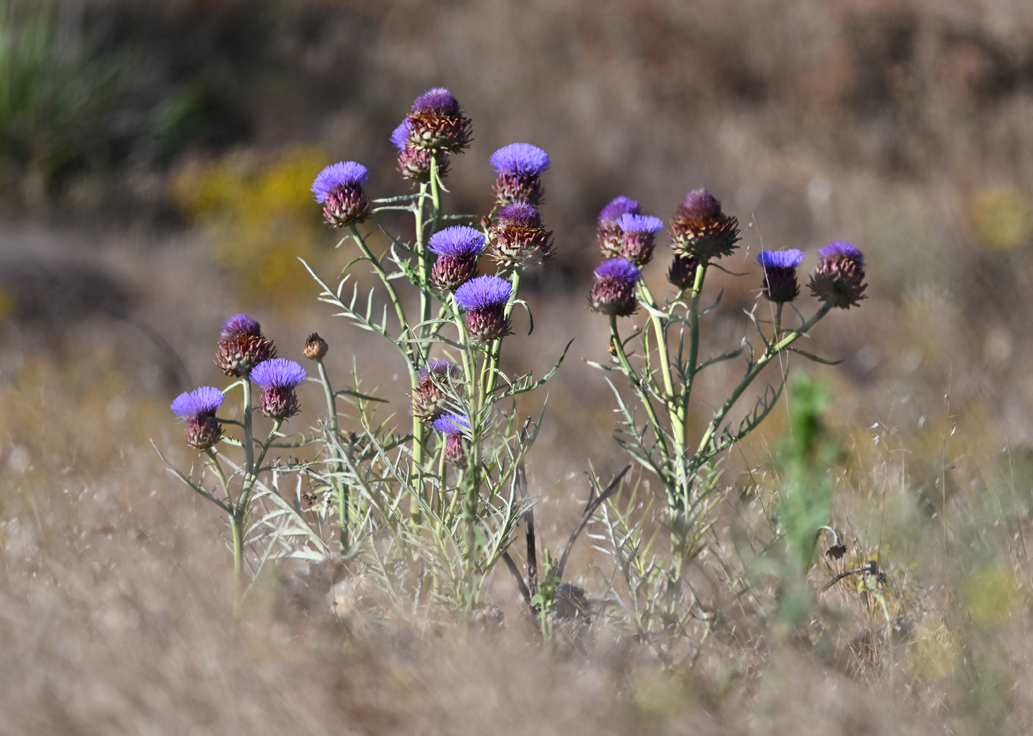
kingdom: Plantae
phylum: Tracheophyta
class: Magnoliopsida
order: Asterales
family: Asteraceae
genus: Cynara
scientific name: Cynara cardunculus
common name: Globe artichoke
